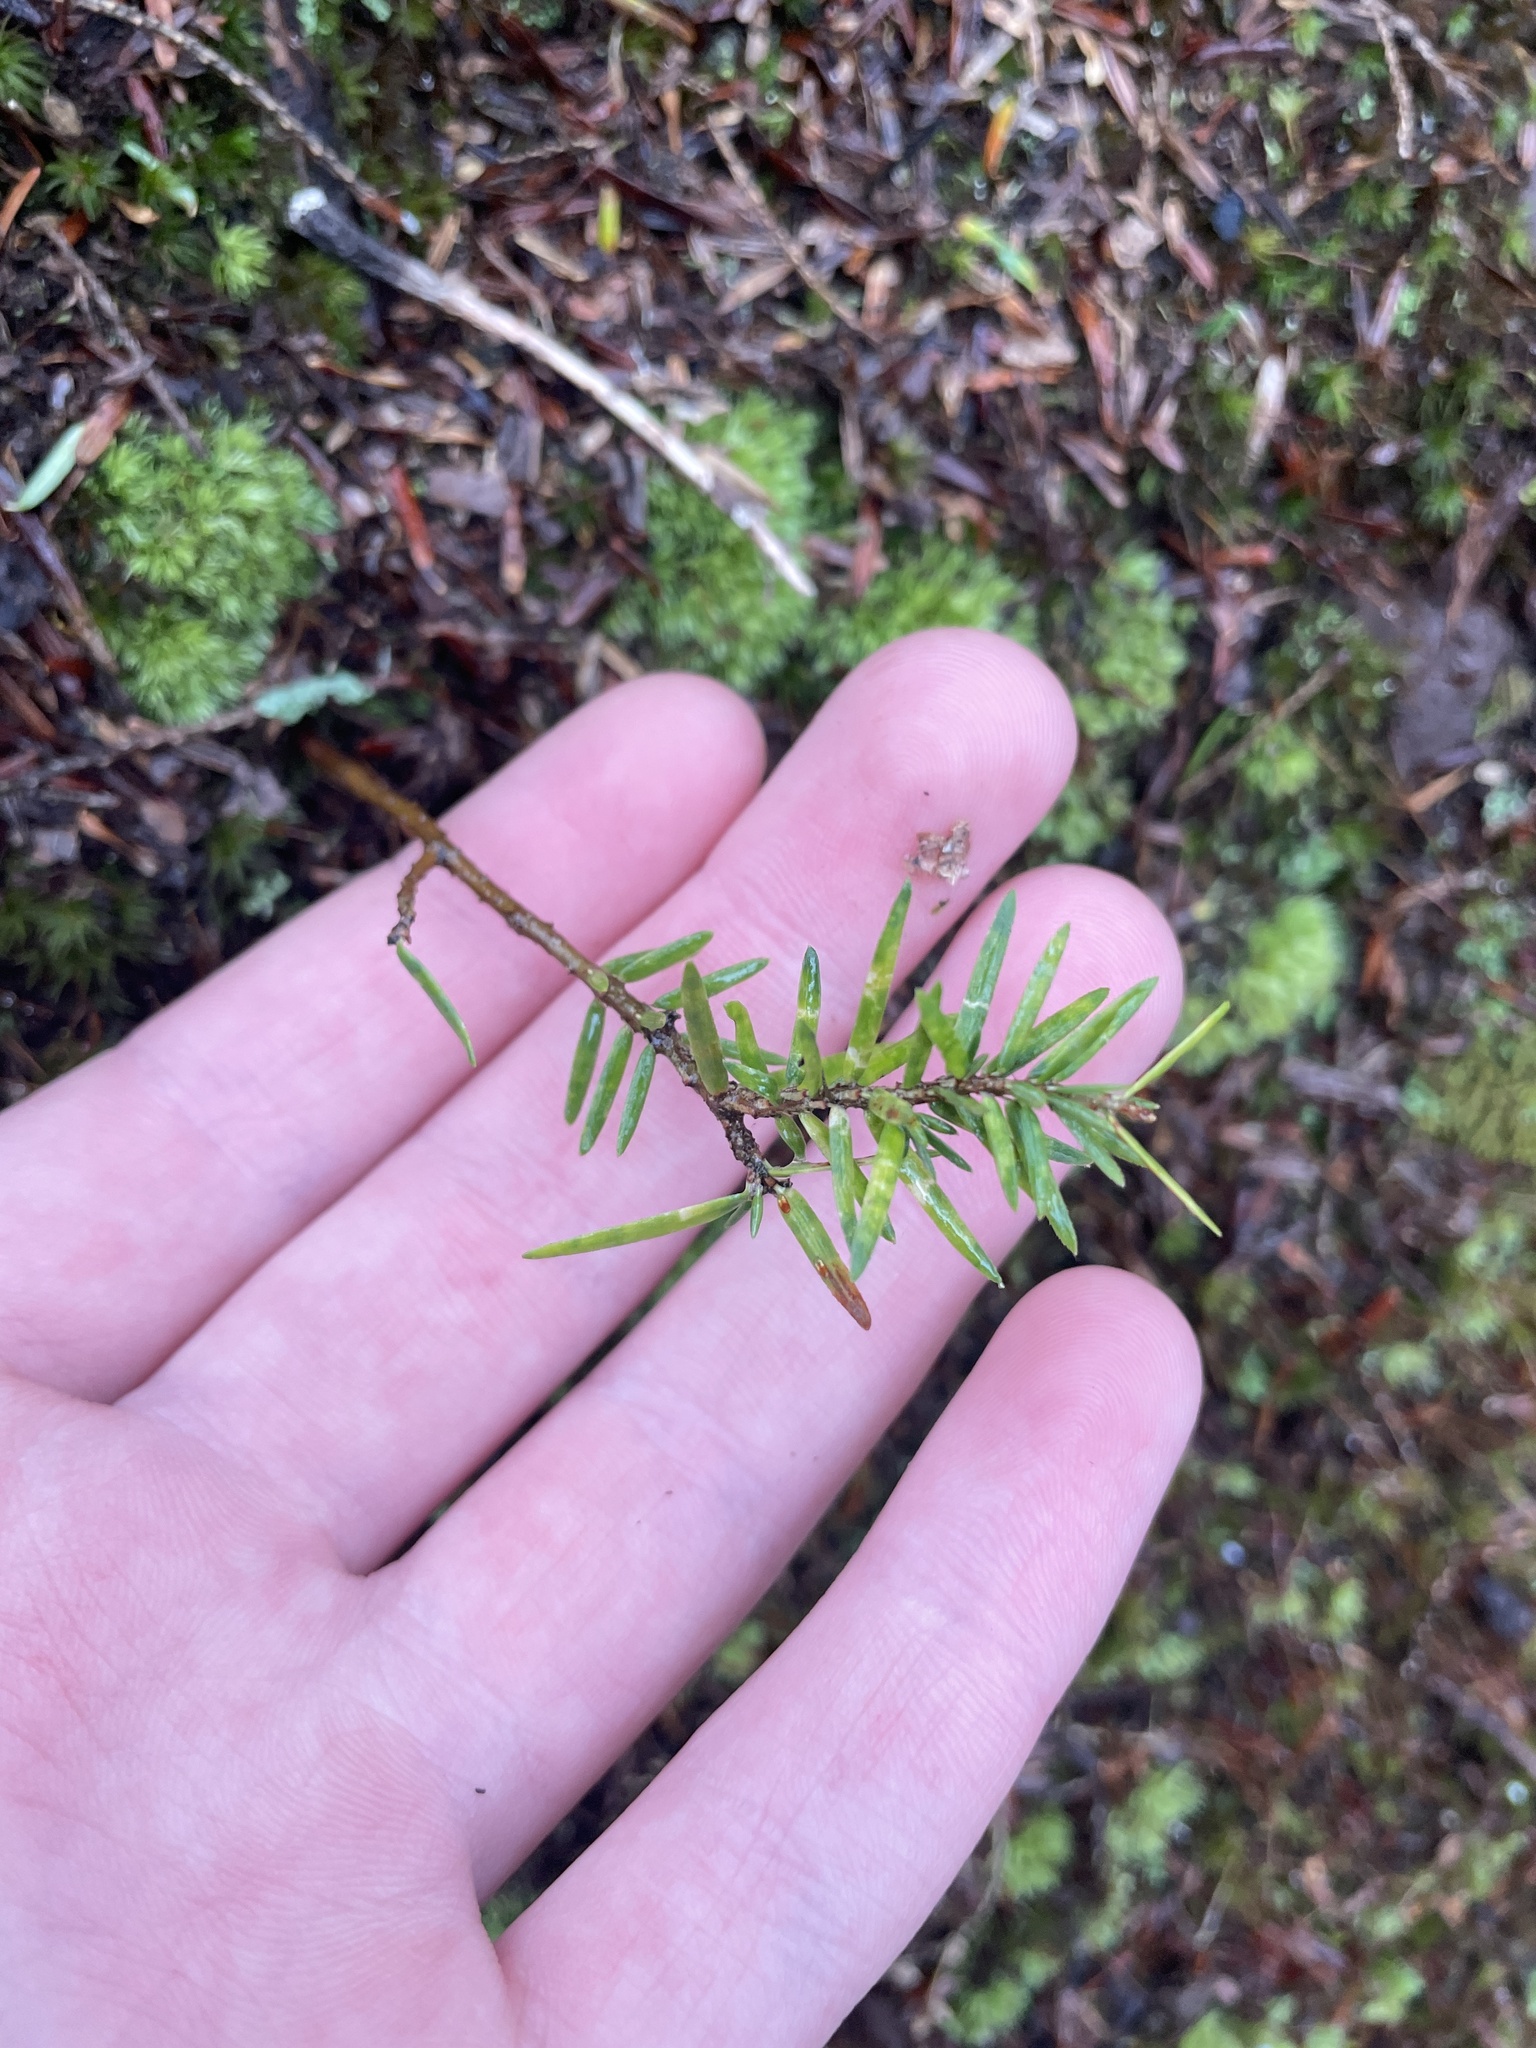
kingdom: Plantae
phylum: Tracheophyta
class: Pinopsida
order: Pinales
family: Pinaceae
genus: Tsuga
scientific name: Tsuga canadensis
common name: Eastern hemlock
